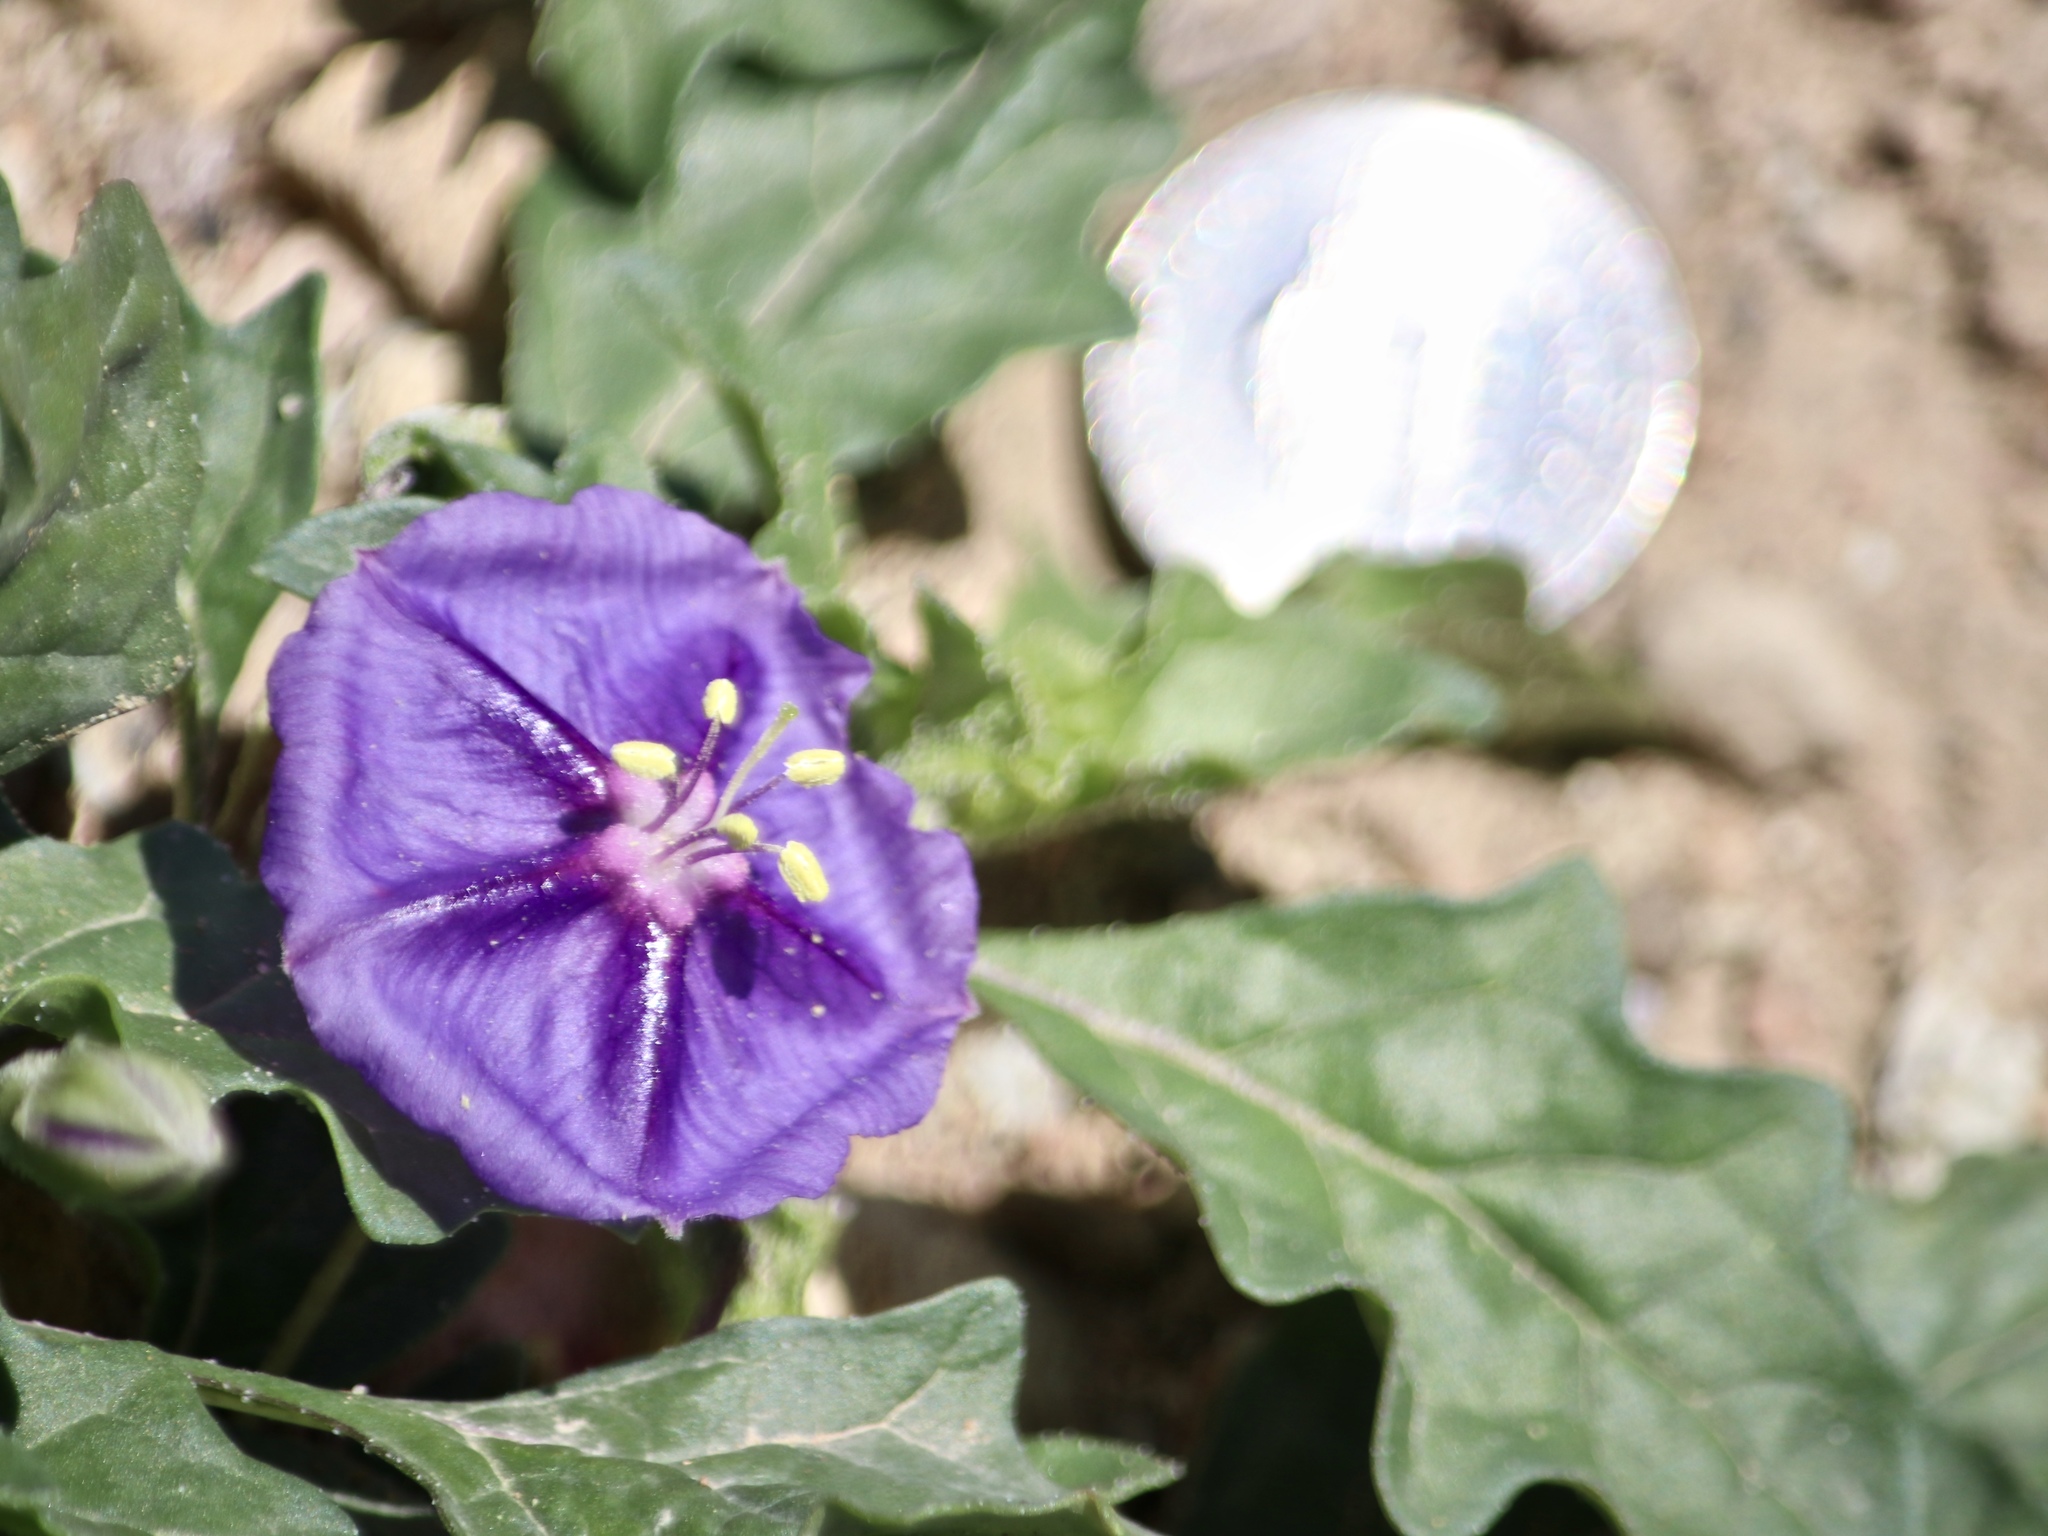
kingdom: Plantae
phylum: Tracheophyta
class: Magnoliopsida
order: Solanales
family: Solanaceae
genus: Quincula
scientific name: Quincula lobata
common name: Purple-ground-cherry
